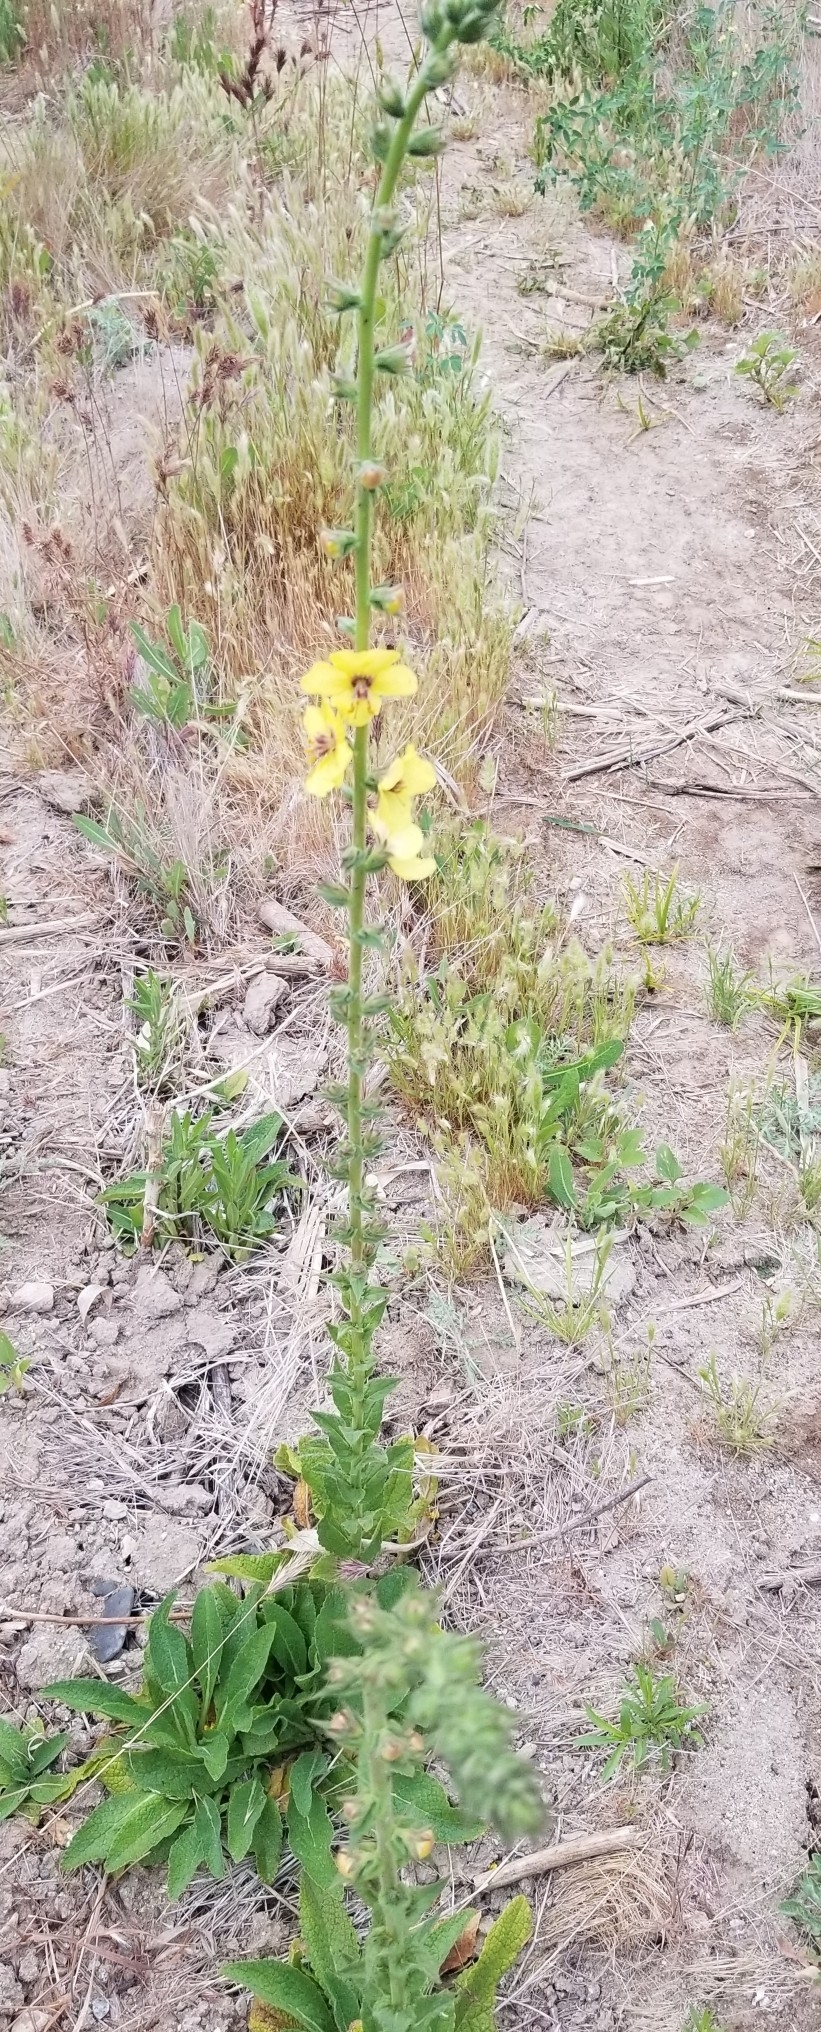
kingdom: Plantae
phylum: Tracheophyta
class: Magnoliopsida
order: Lamiales
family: Scrophulariaceae
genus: Verbascum
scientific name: Verbascum virgatum
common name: Twiggy mullein
